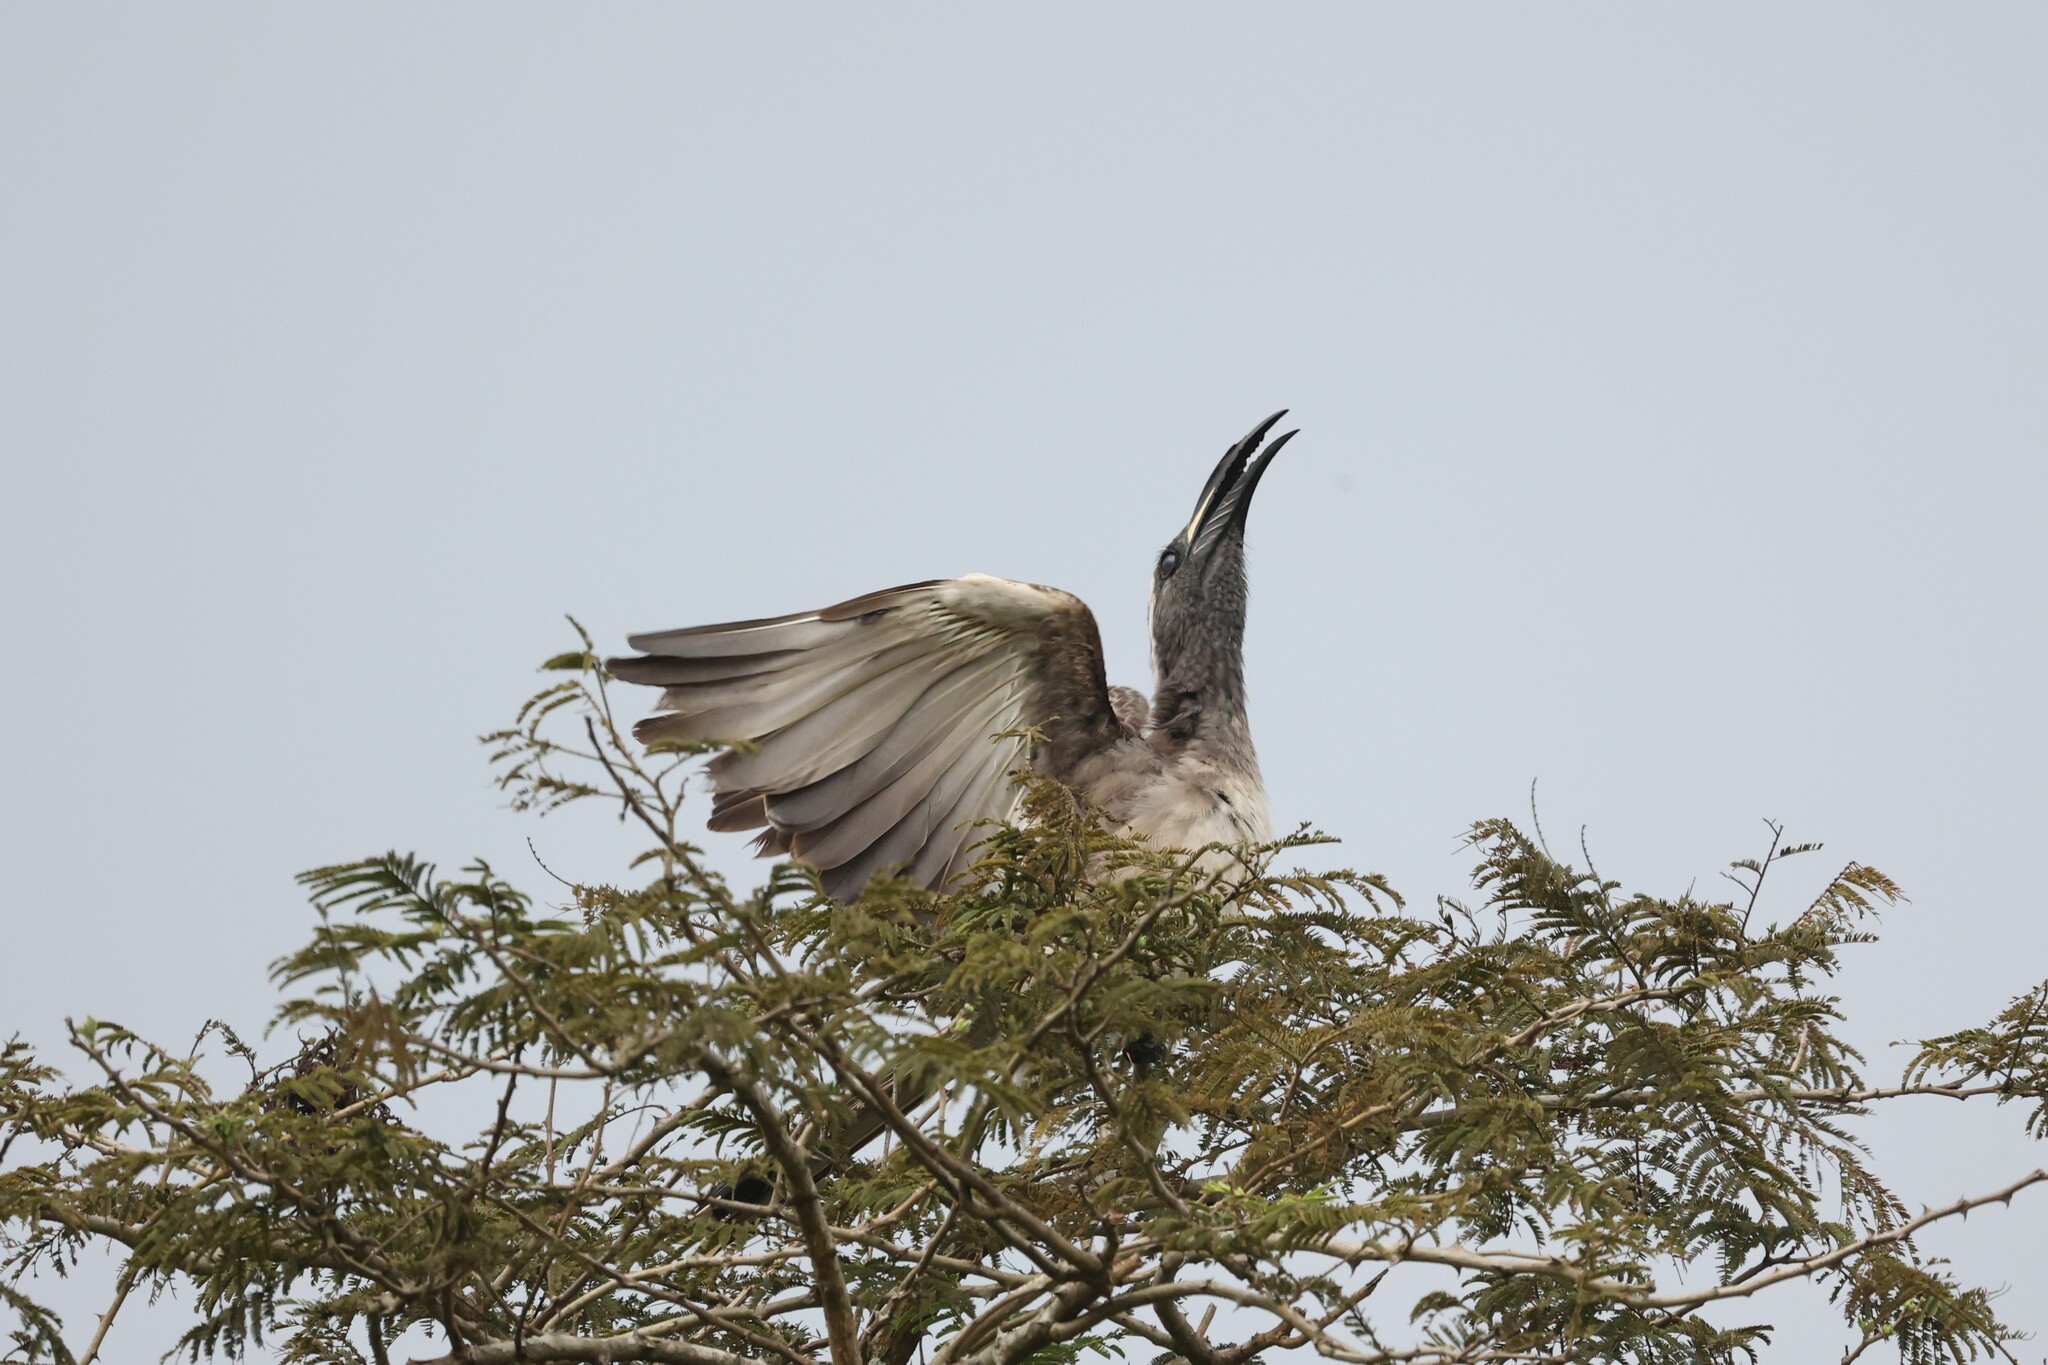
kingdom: Animalia
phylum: Chordata
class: Aves
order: Bucerotiformes
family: Bucerotidae
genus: Lophoceros
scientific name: Lophoceros nasutus
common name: African grey hornbill
